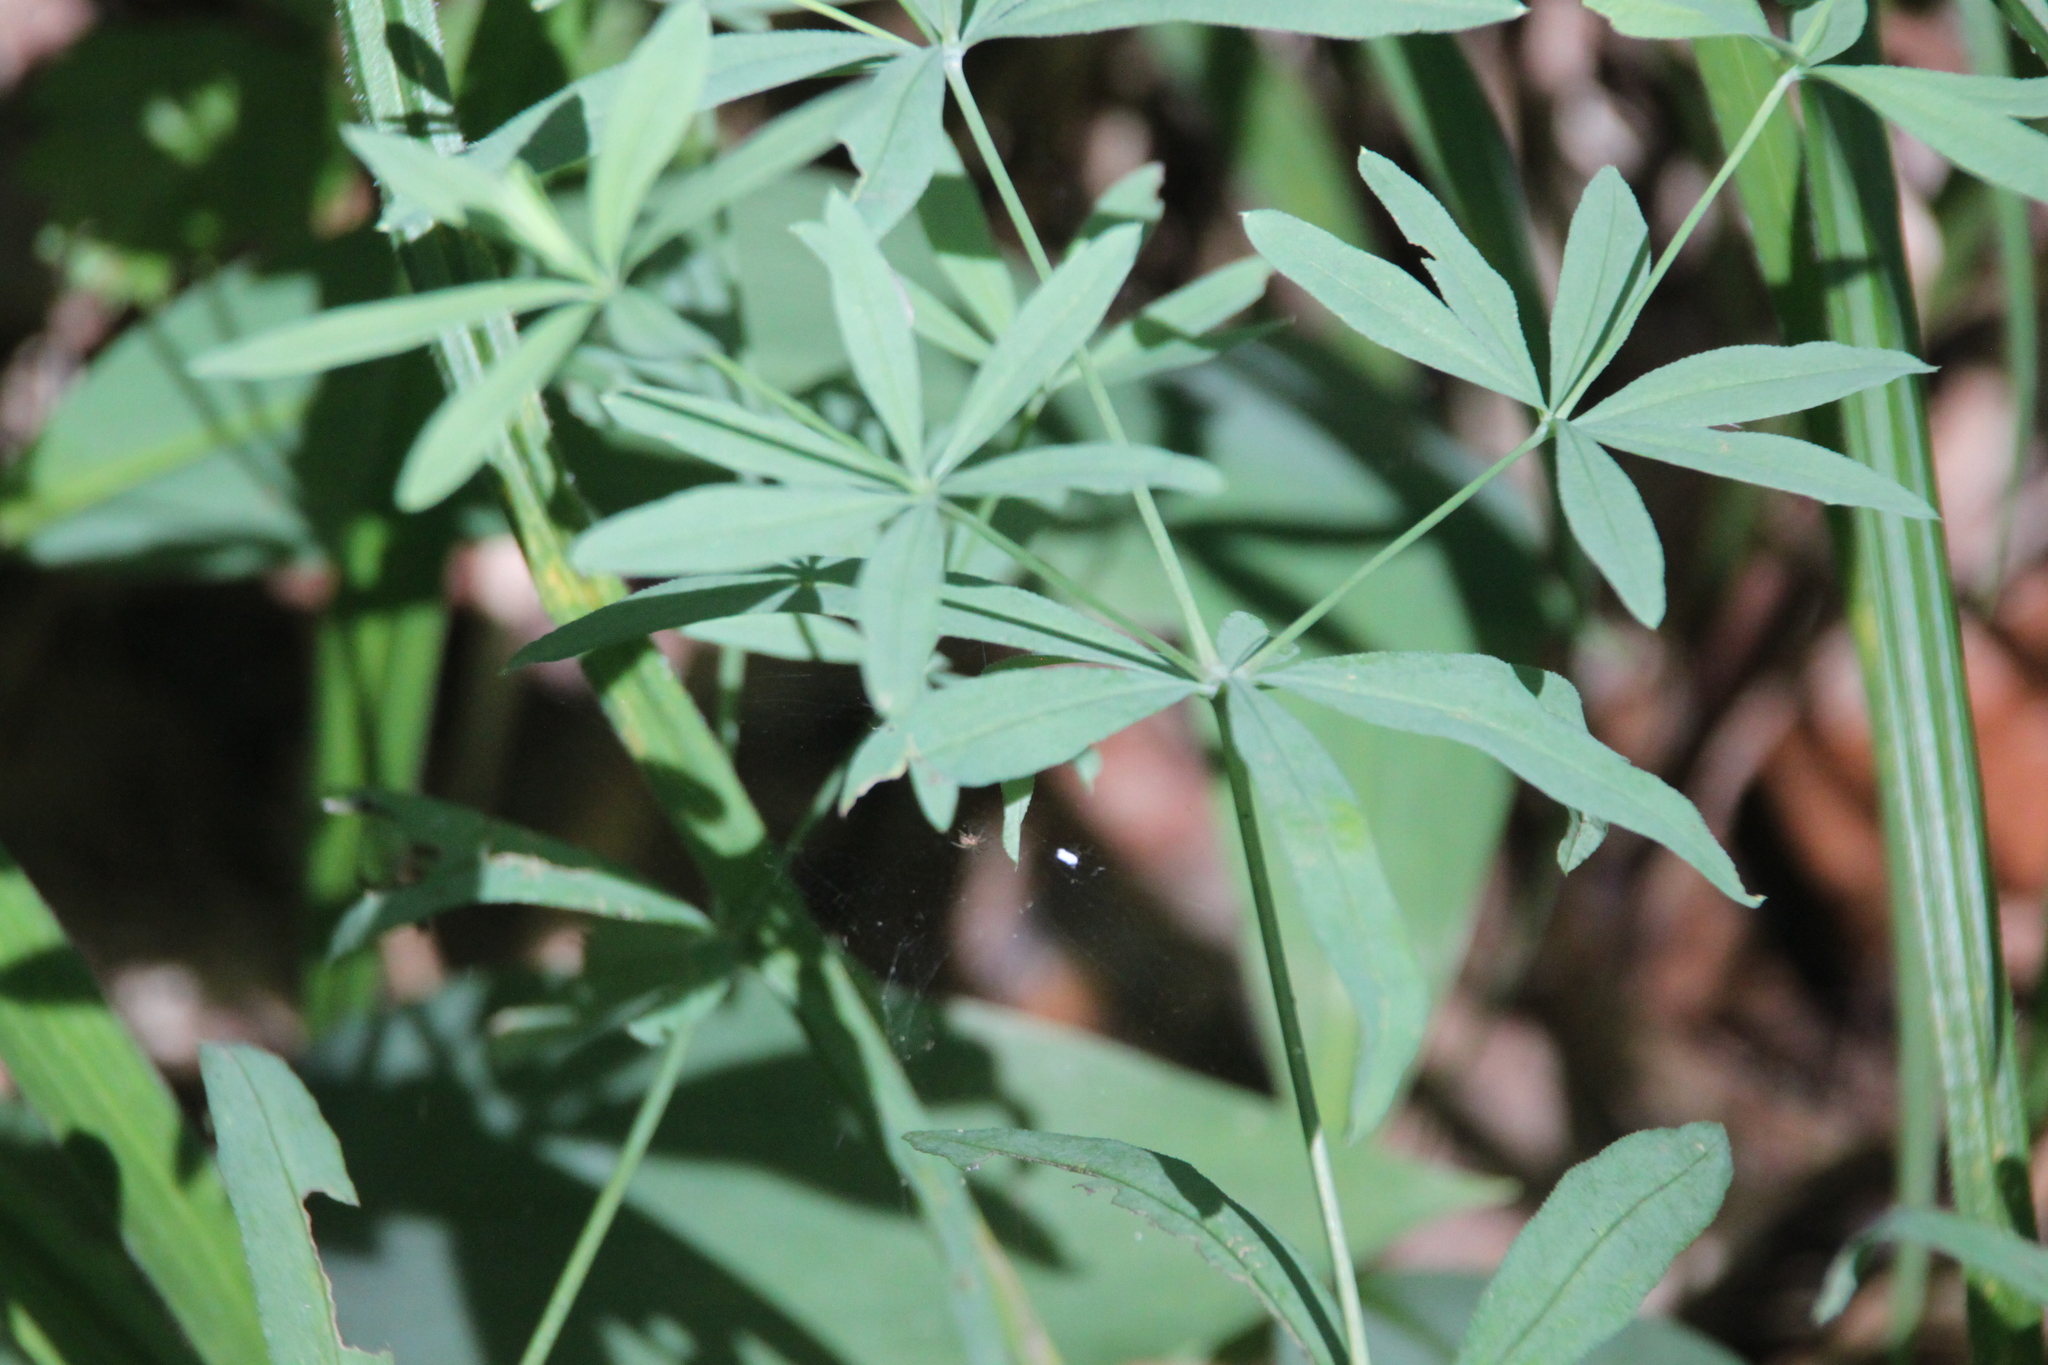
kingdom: Plantae
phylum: Tracheophyta
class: Magnoliopsida
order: Gentianales
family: Rubiaceae
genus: Galium
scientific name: Galium intermedium
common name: Bedstraw
